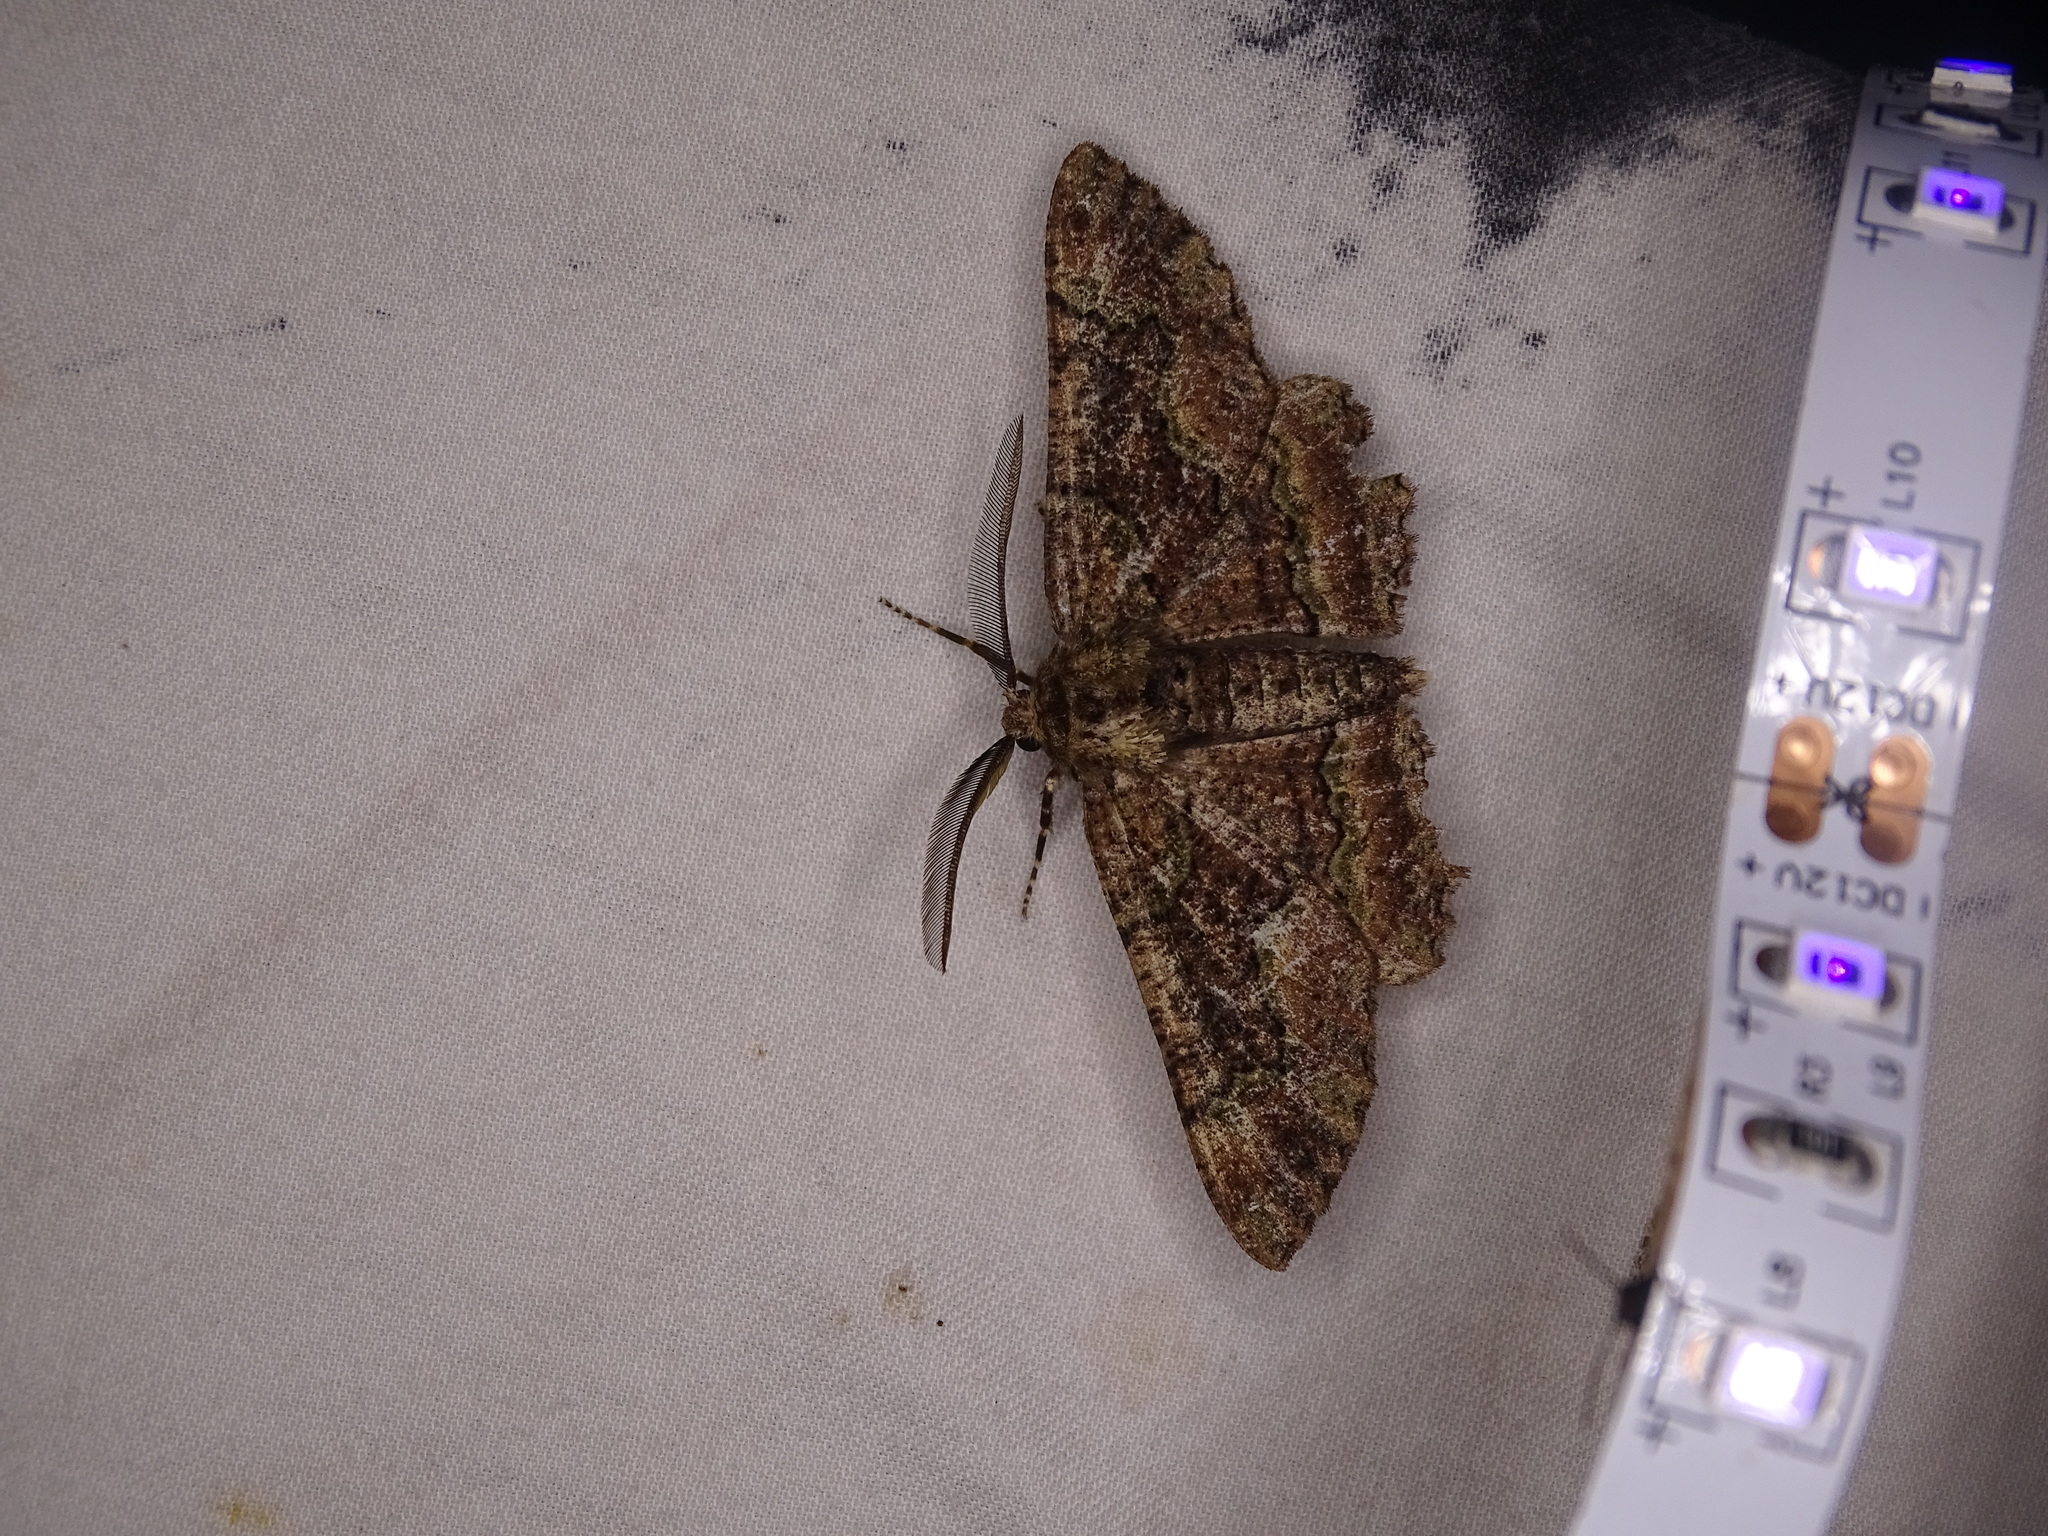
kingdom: Animalia
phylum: Arthropoda
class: Insecta
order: Lepidoptera
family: Geometridae
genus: Phaeoura
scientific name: Phaeoura quernaria
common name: Oak beauty
